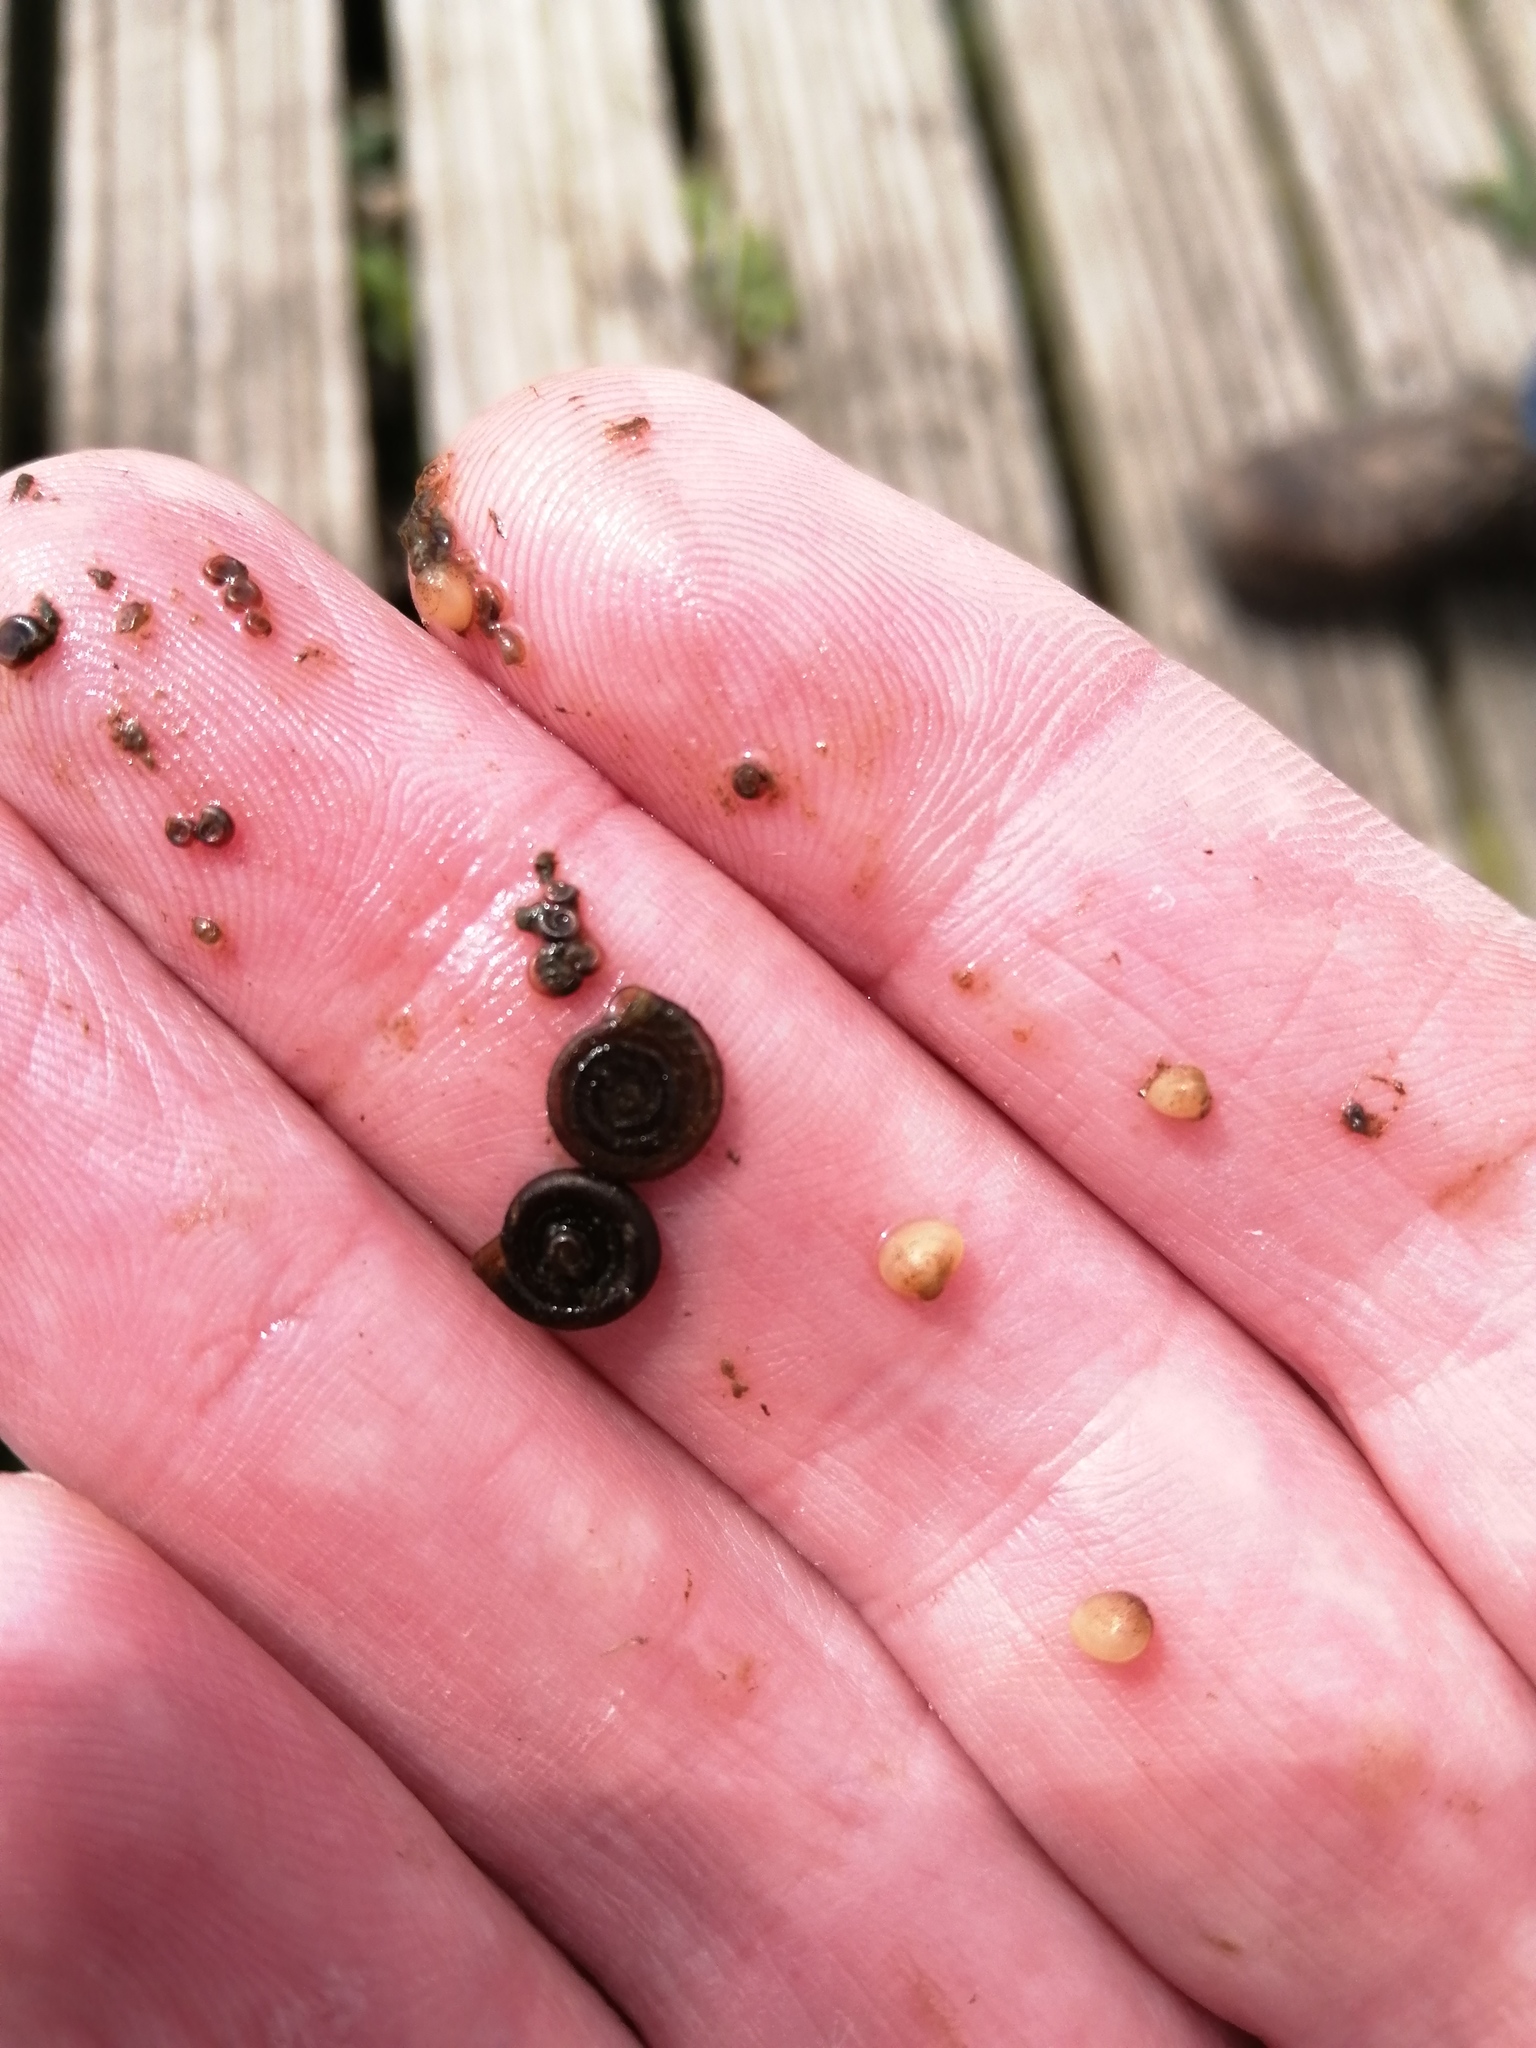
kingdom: Animalia
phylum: Mollusca
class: Gastropoda
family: Planorbidae
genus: Anisus
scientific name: Anisus leucostoma
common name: Button ram's horn
